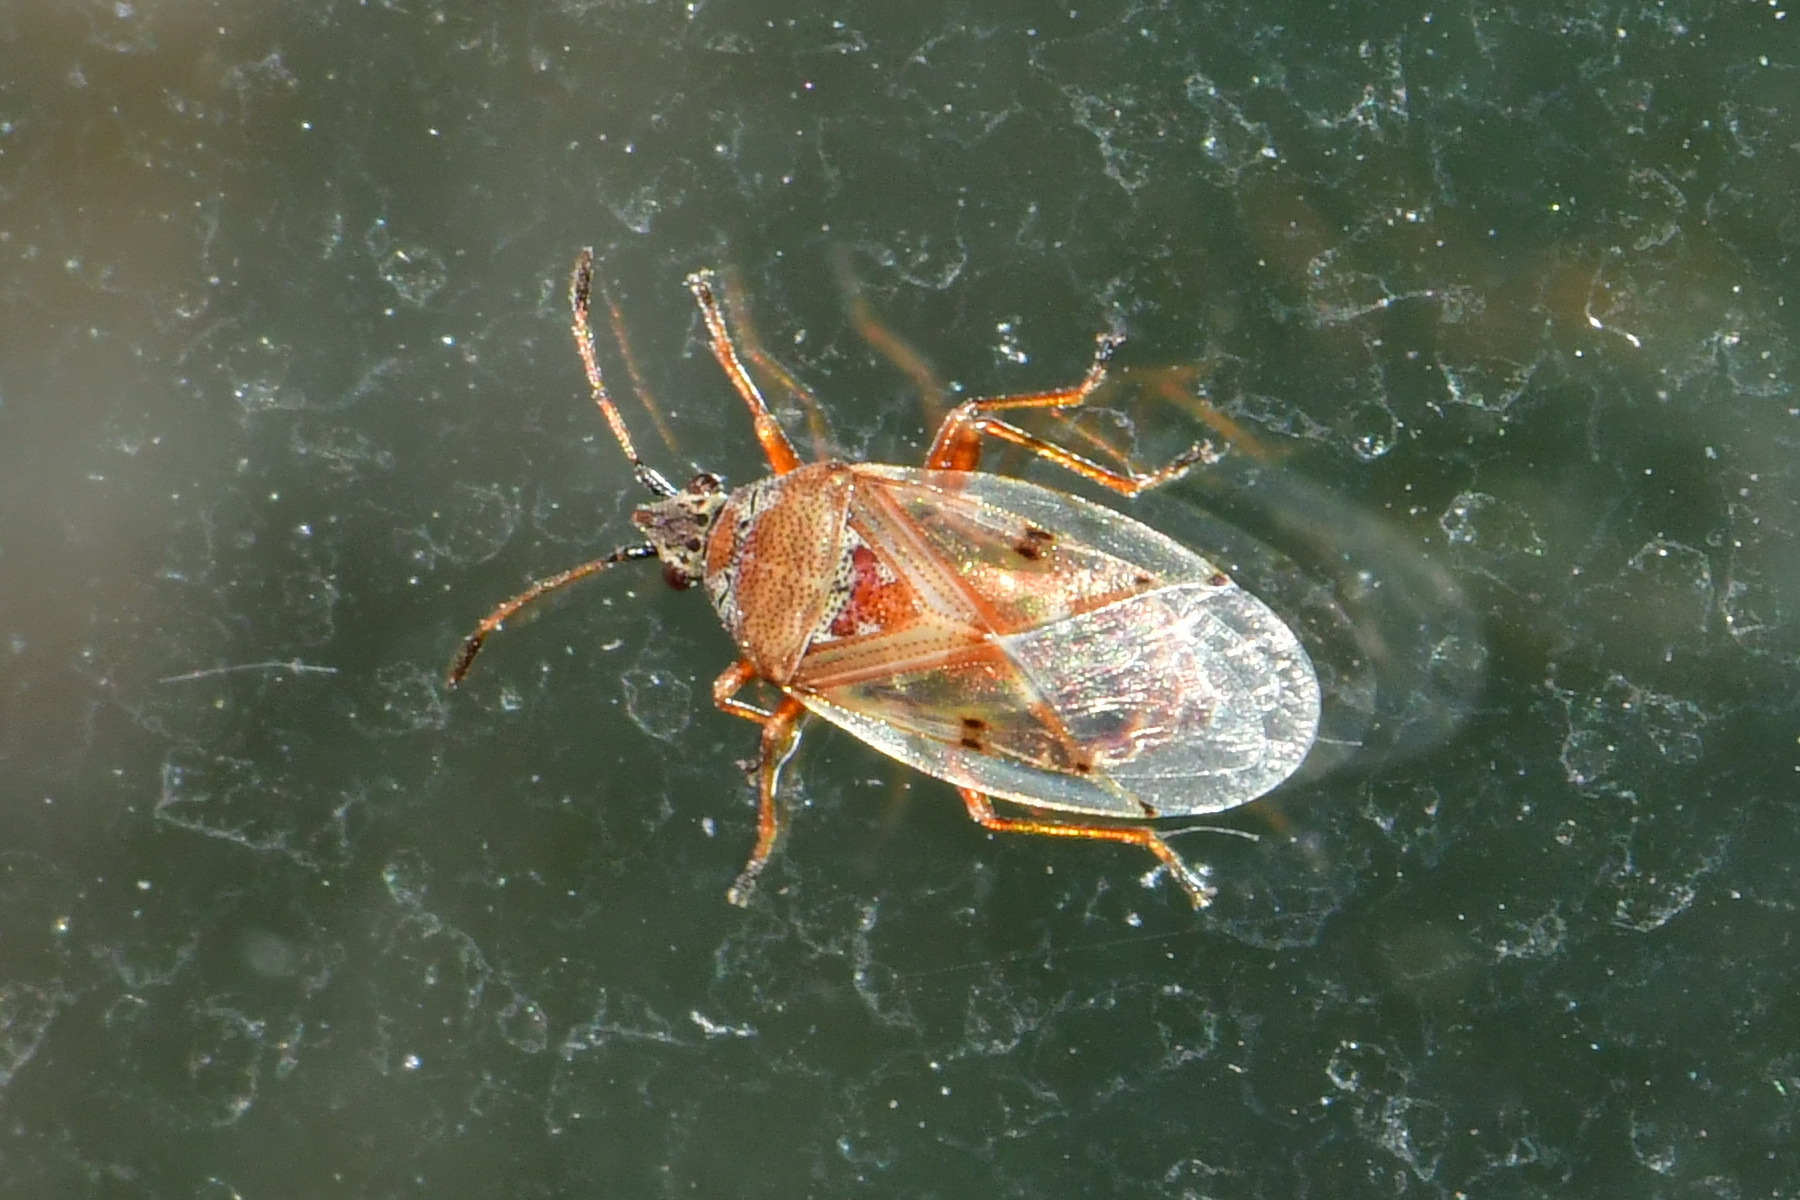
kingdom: Animalia
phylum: Arthropoda
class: Insecta
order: Hemiptera
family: Lygaeidae
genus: Kleidocerys
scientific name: Kleidocerys resedae
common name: Birch catkin bug
